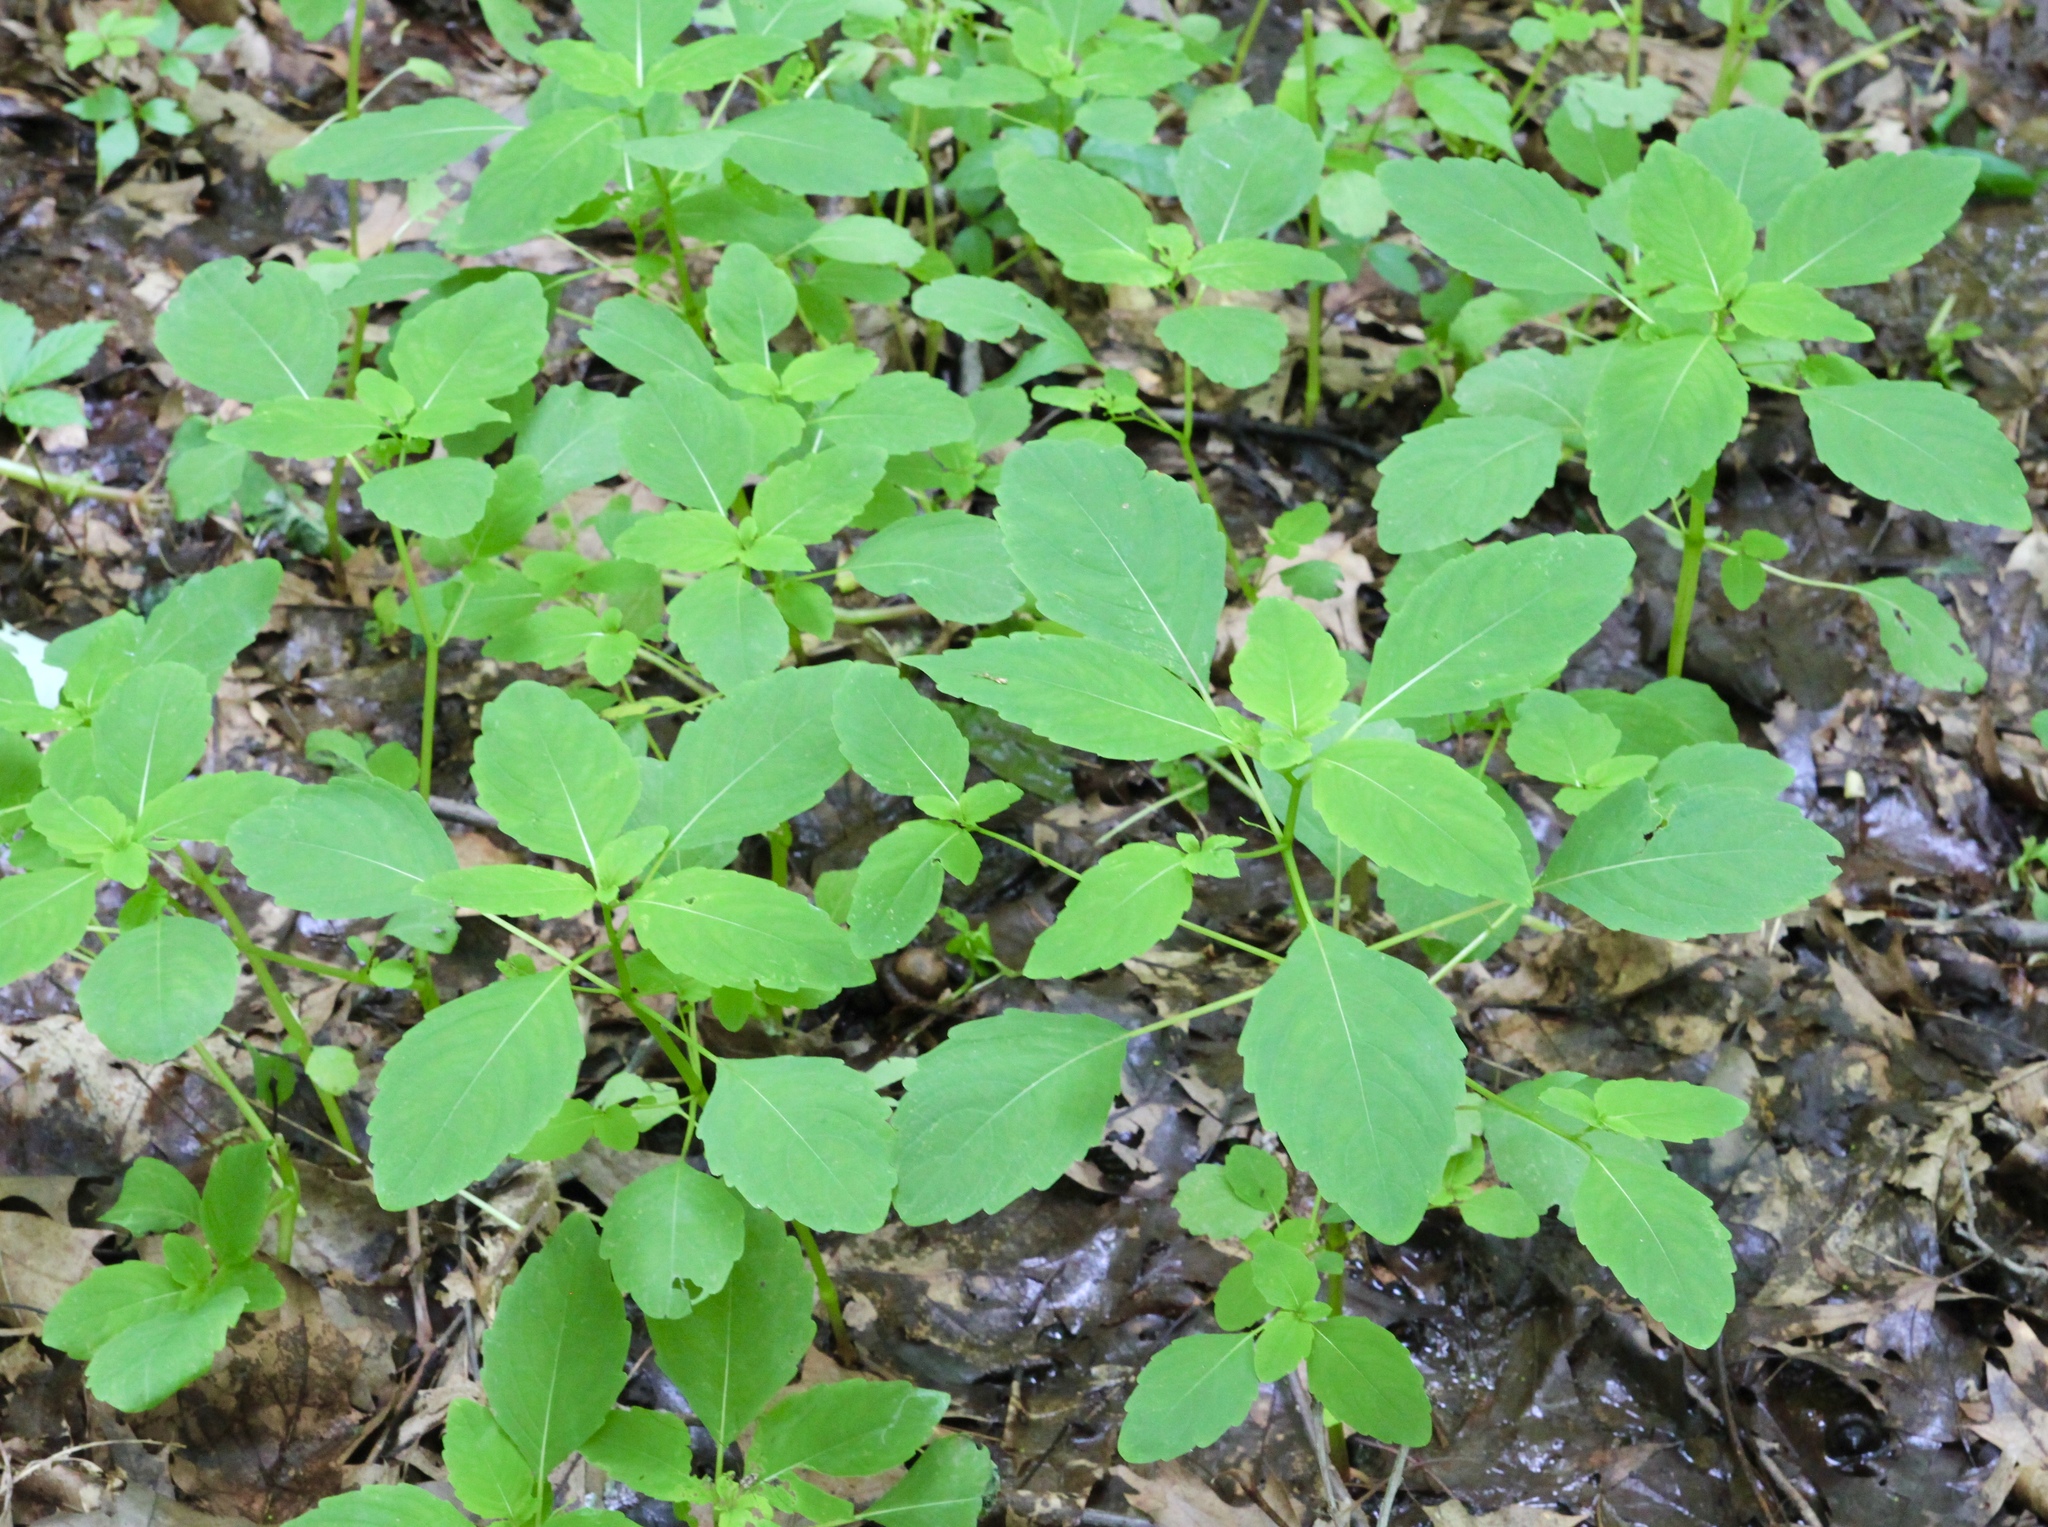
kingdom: Plantae
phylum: Tracheophyta
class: Magnoliopsida
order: Ericales
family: Balsaminaceae
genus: Impatiens
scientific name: Impatiens capensis
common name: Orange balsam
